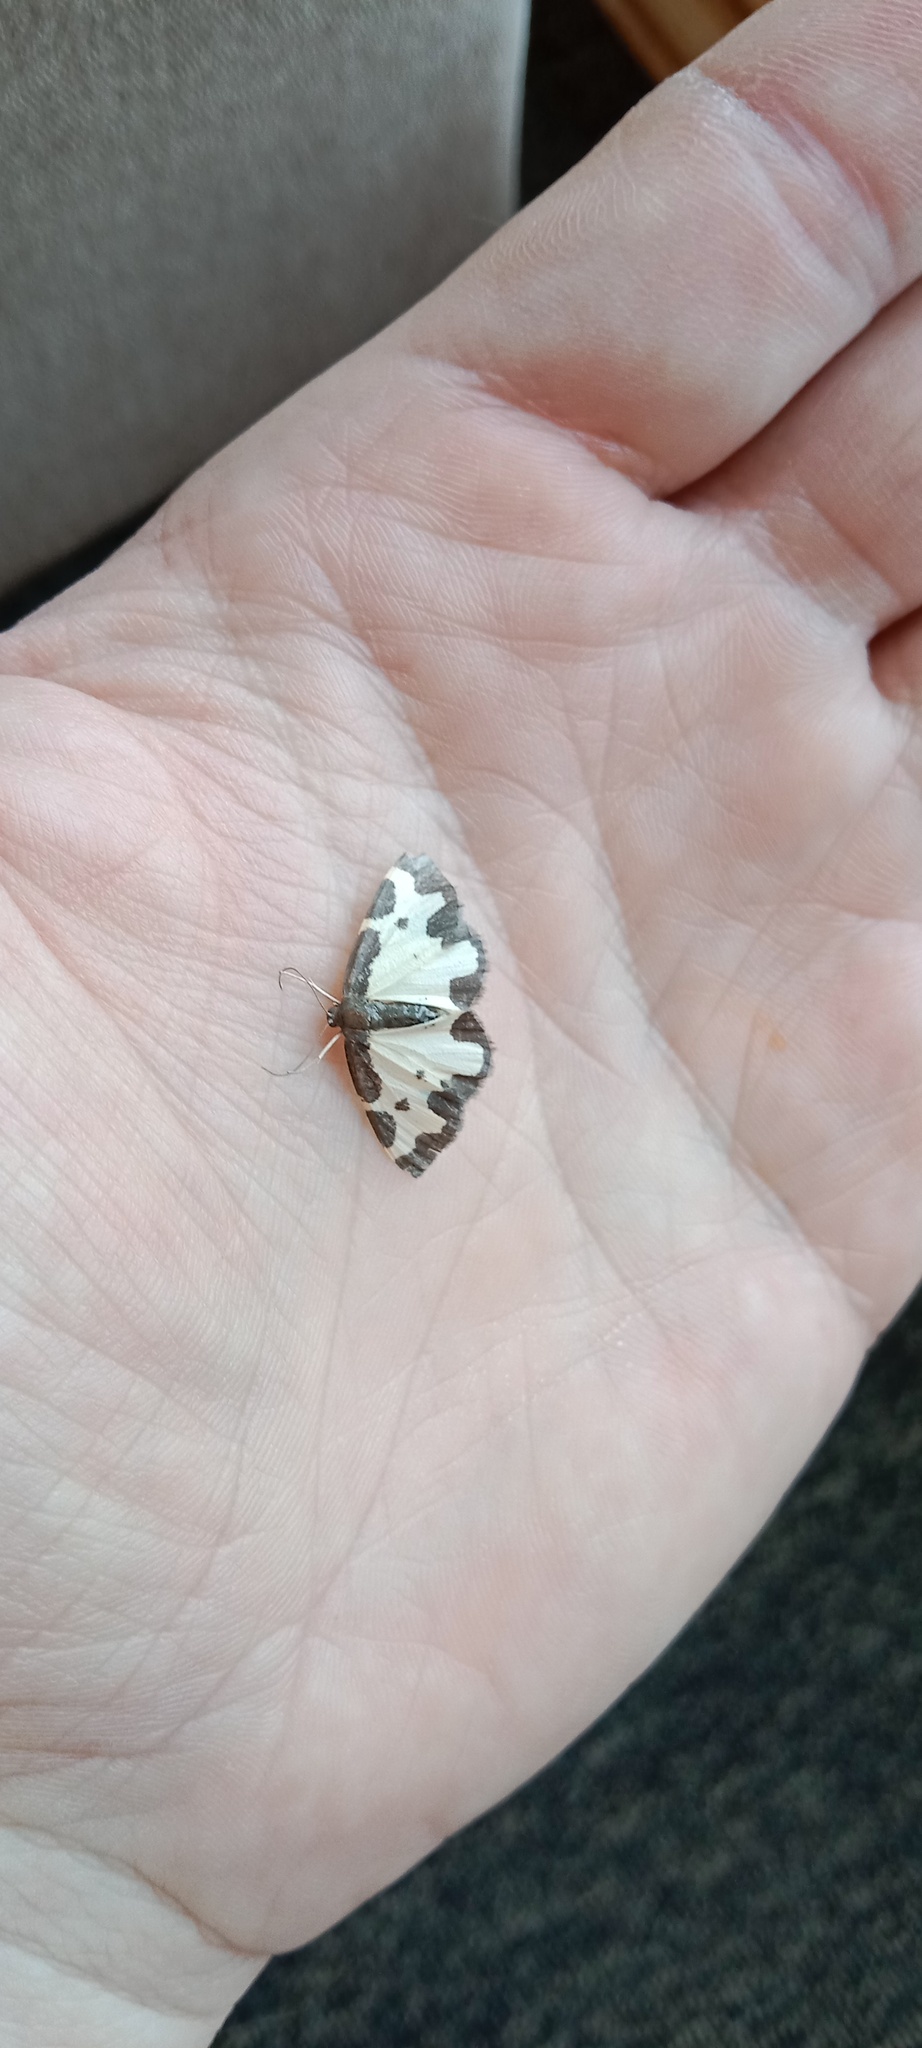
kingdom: Animalia
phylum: Arthropoda
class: Insecta
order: Lepidoptera
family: Geometridae
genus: Lomaspilis
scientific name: Lomaspilis marginata
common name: Clouded border
